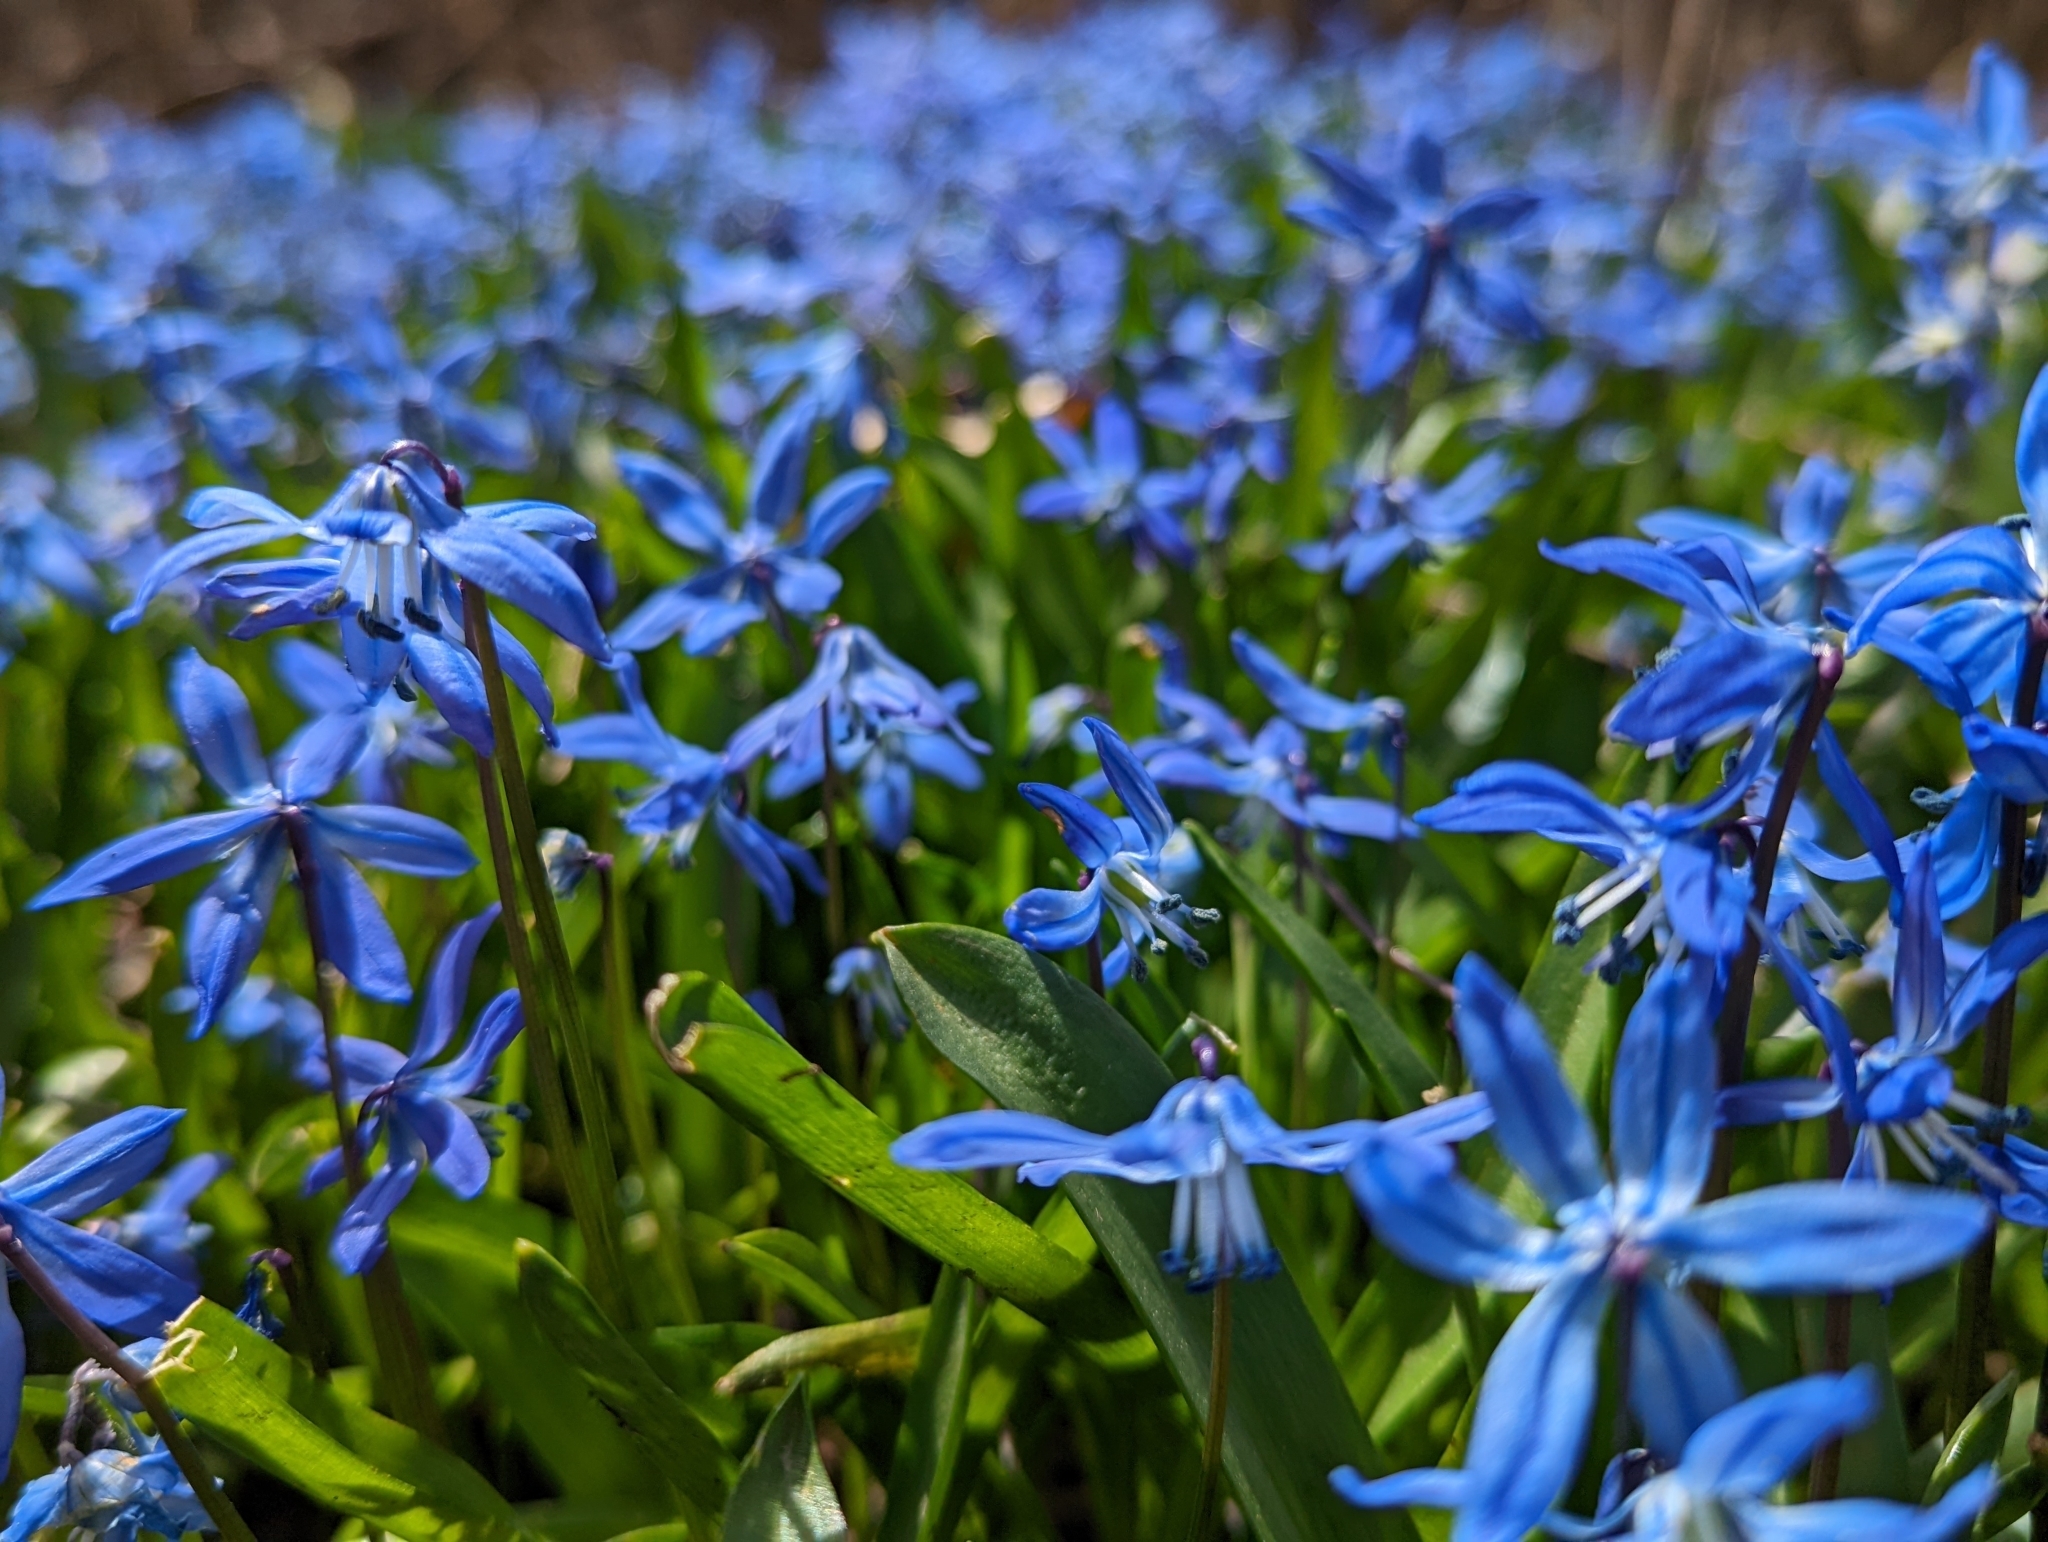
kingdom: Plantae
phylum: Tracheophyta
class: Liliopsida
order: Asparagales
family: Asparagaceae
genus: Scilla
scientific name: Scilla siberica
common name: Siberian squill
